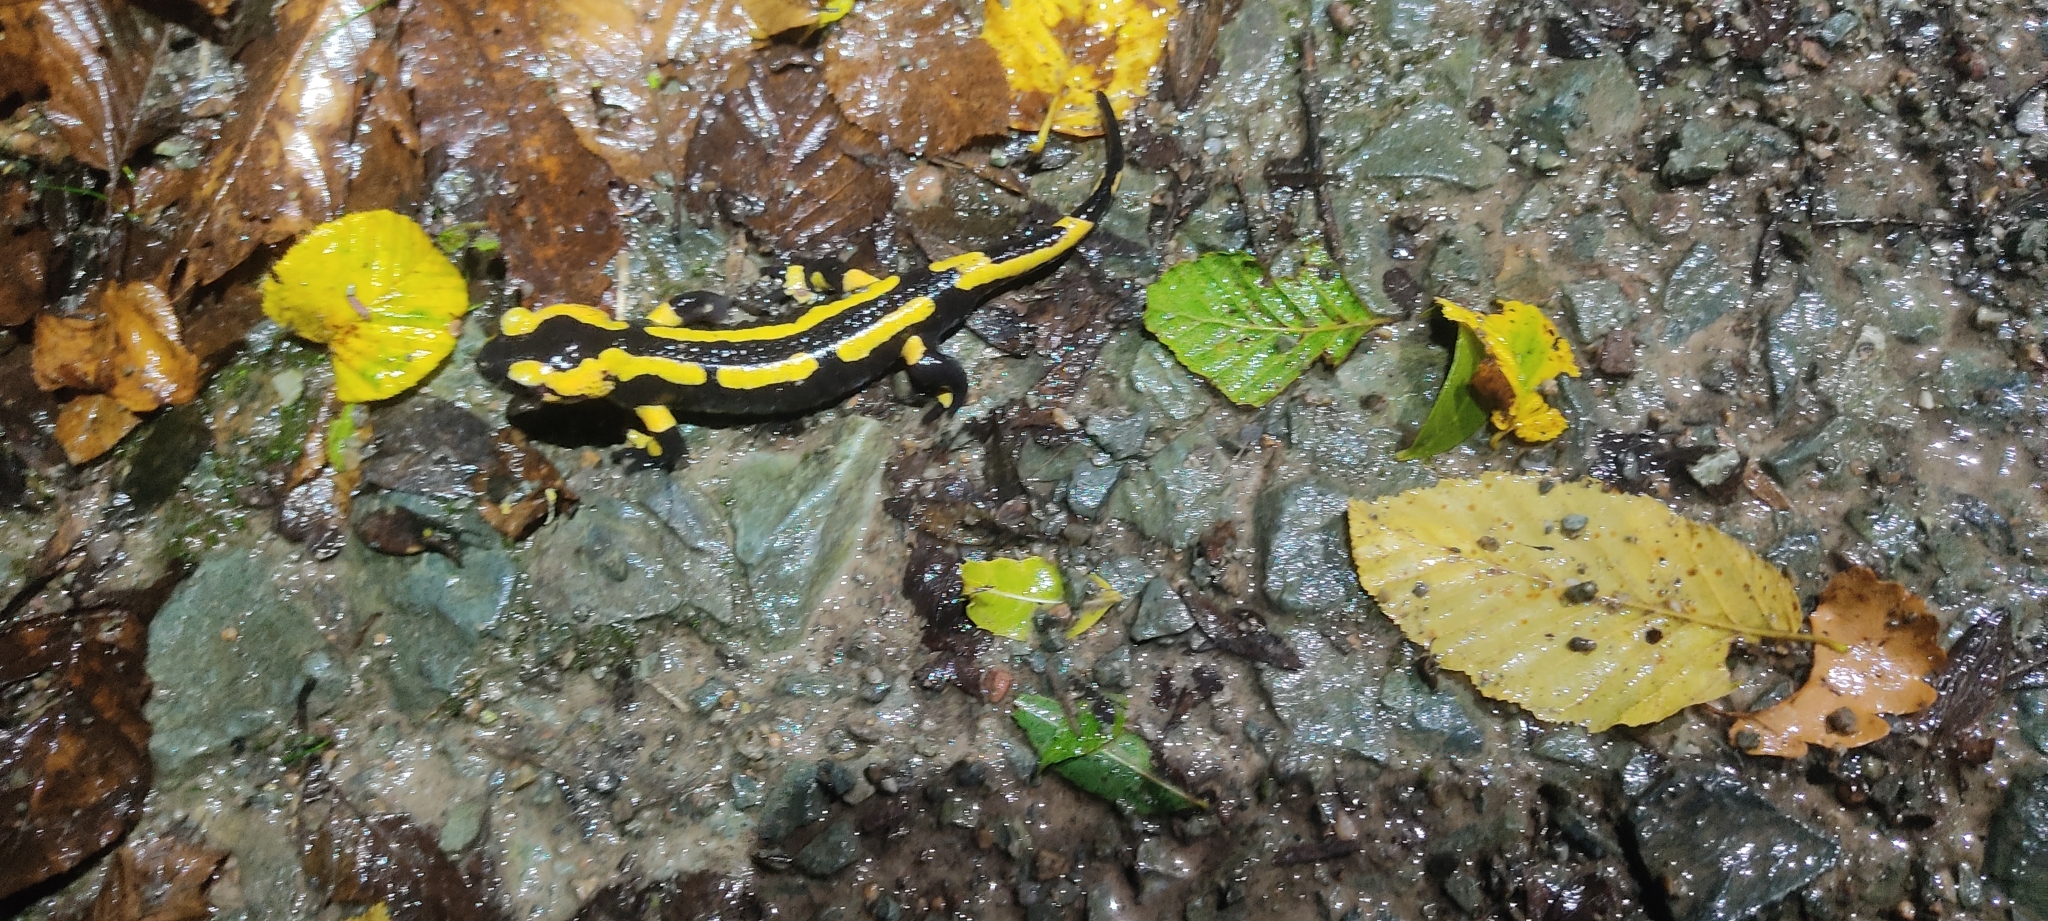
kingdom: Animalia
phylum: Chordata
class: Amphibia
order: Caudata
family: Salamandridae
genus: Salamandra
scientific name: Salamandra salamandra
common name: Fire salamander
